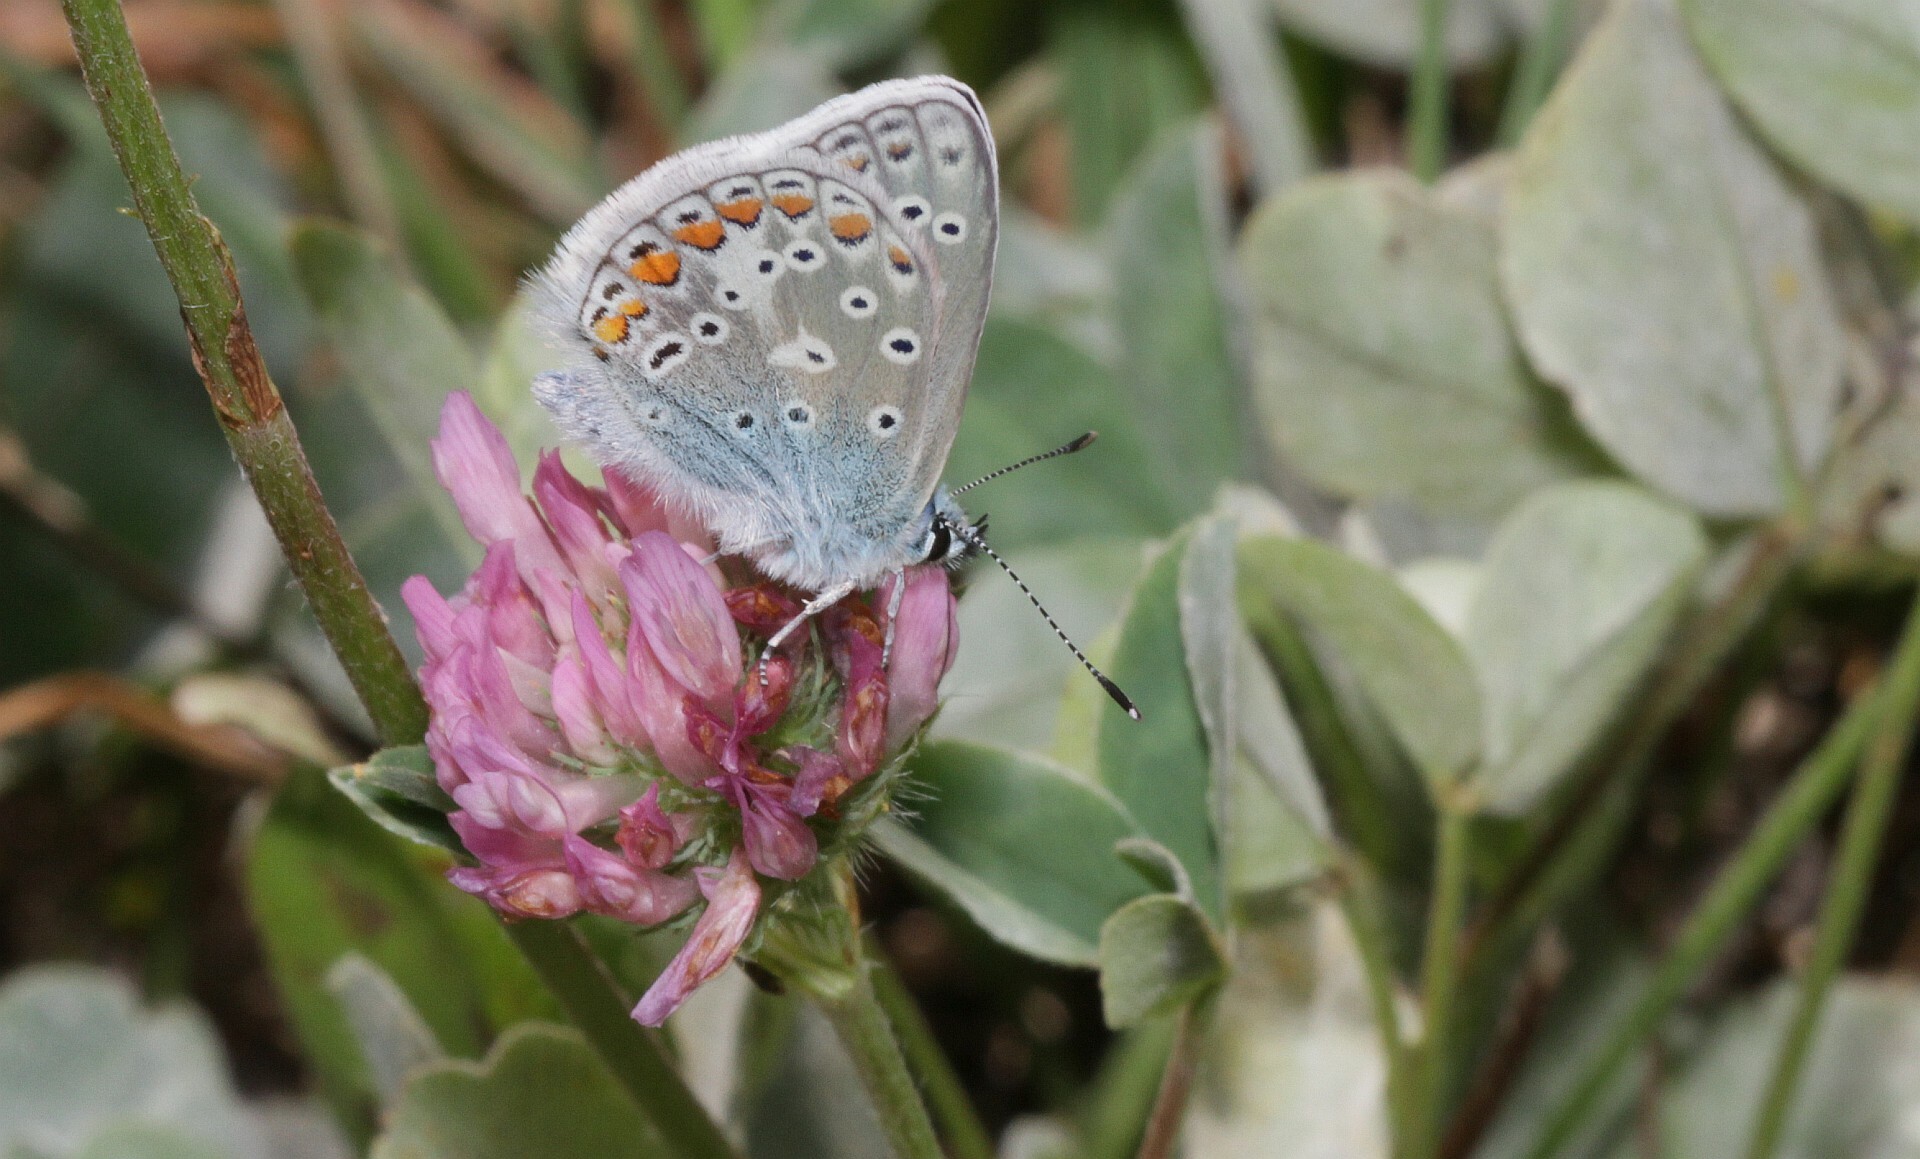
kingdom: Animalia
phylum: Arthropoda
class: Insecta
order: Lepidoptera
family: Lycaenidae
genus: Polyommatus
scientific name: Polyommatus icarus
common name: Common blue
